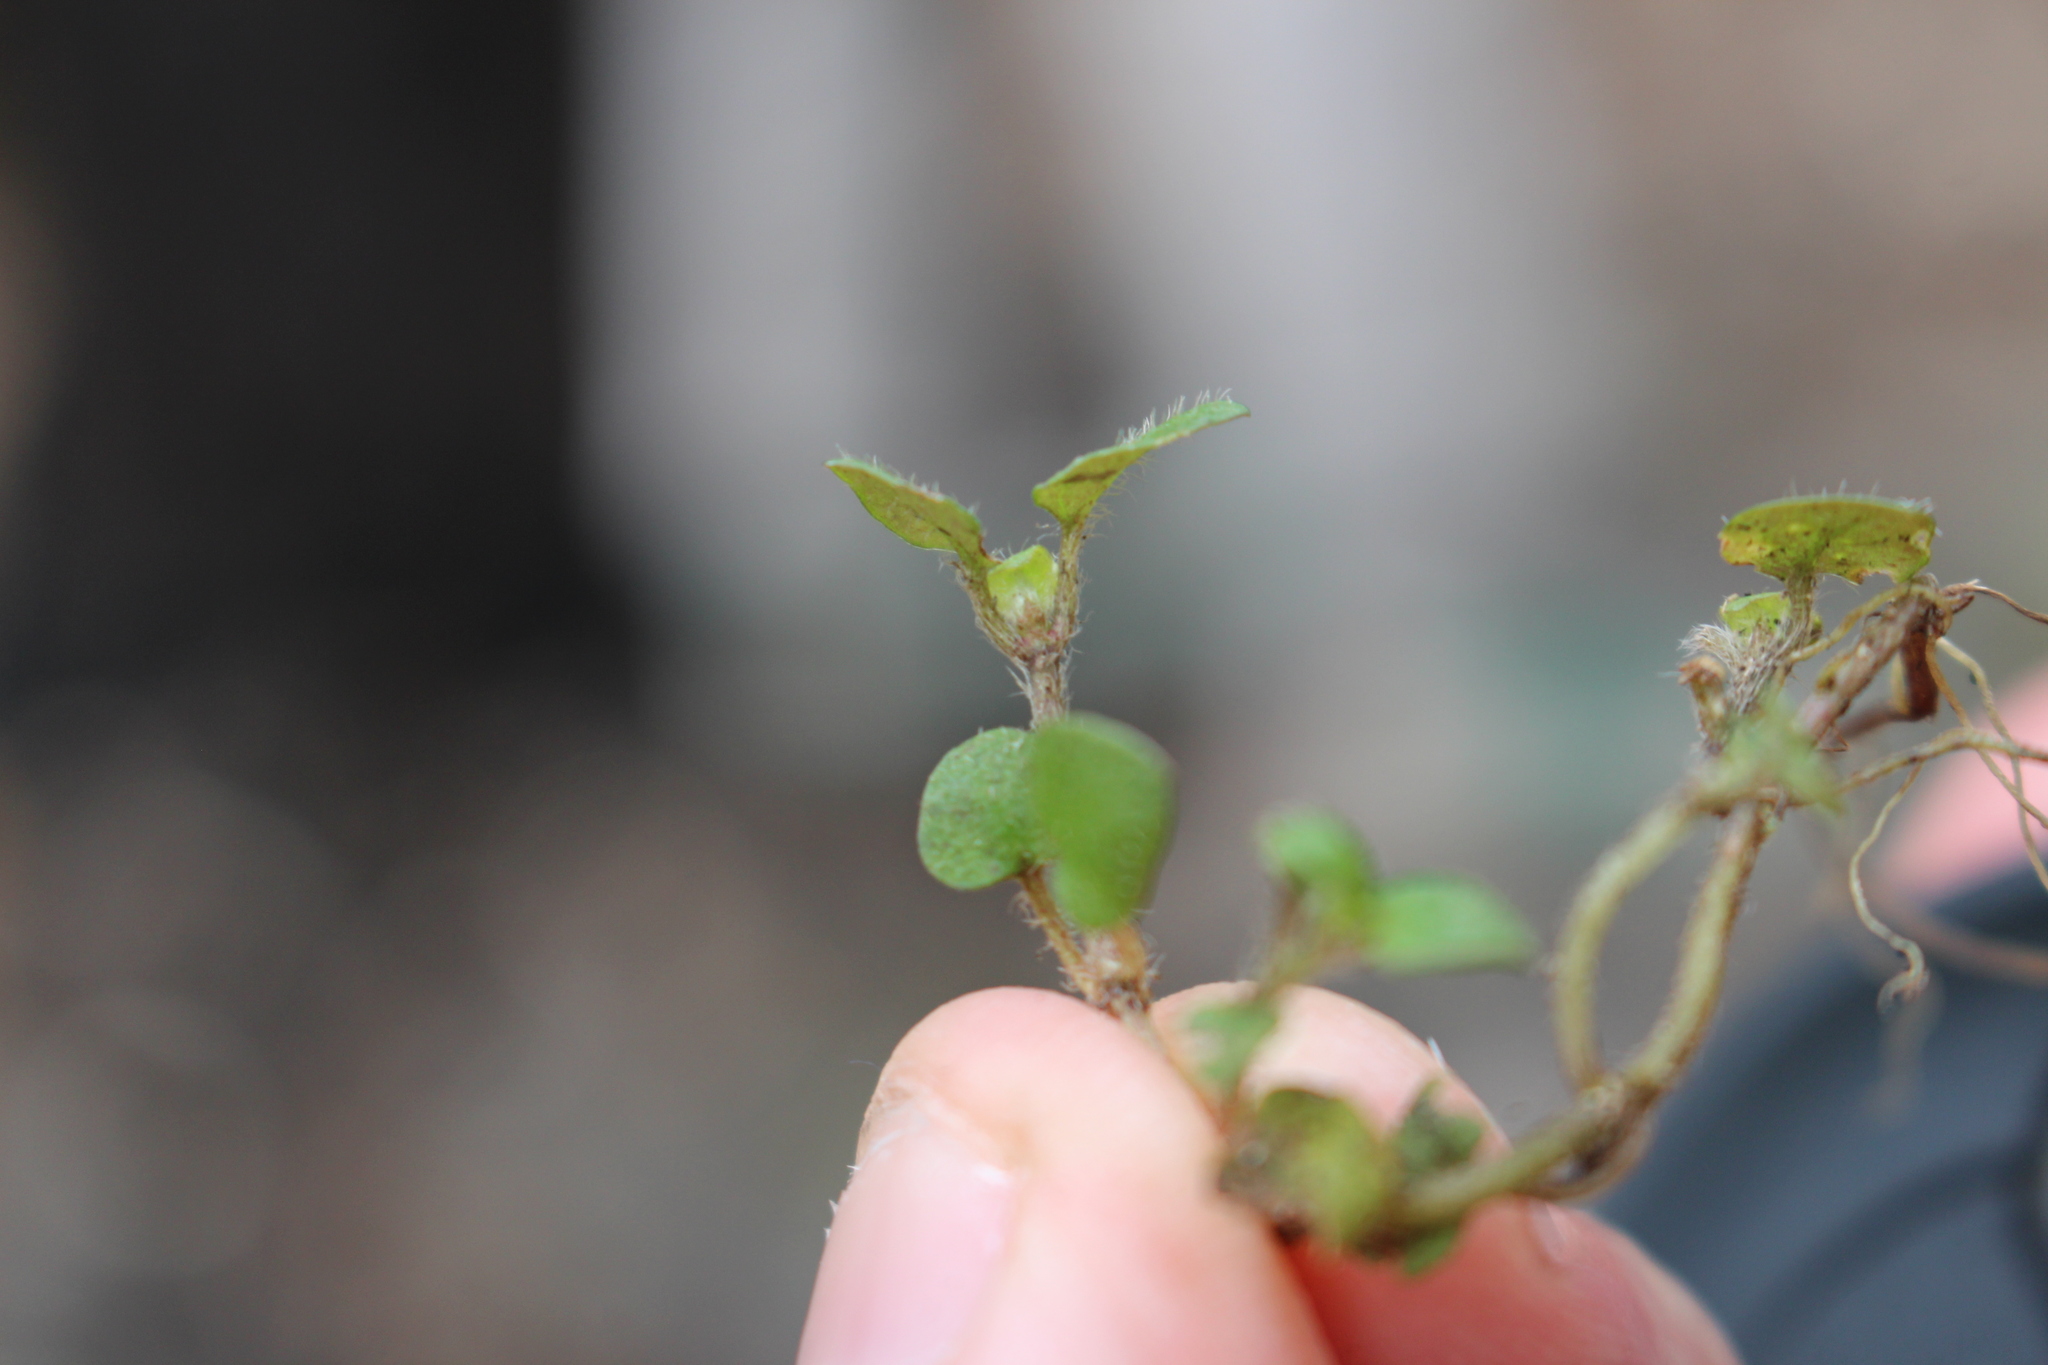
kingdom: Plantae
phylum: Tracheophyta
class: Magnoliopsida
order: Gentianales
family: Rubiaceae
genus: Nertera
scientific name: Nertera villosa
